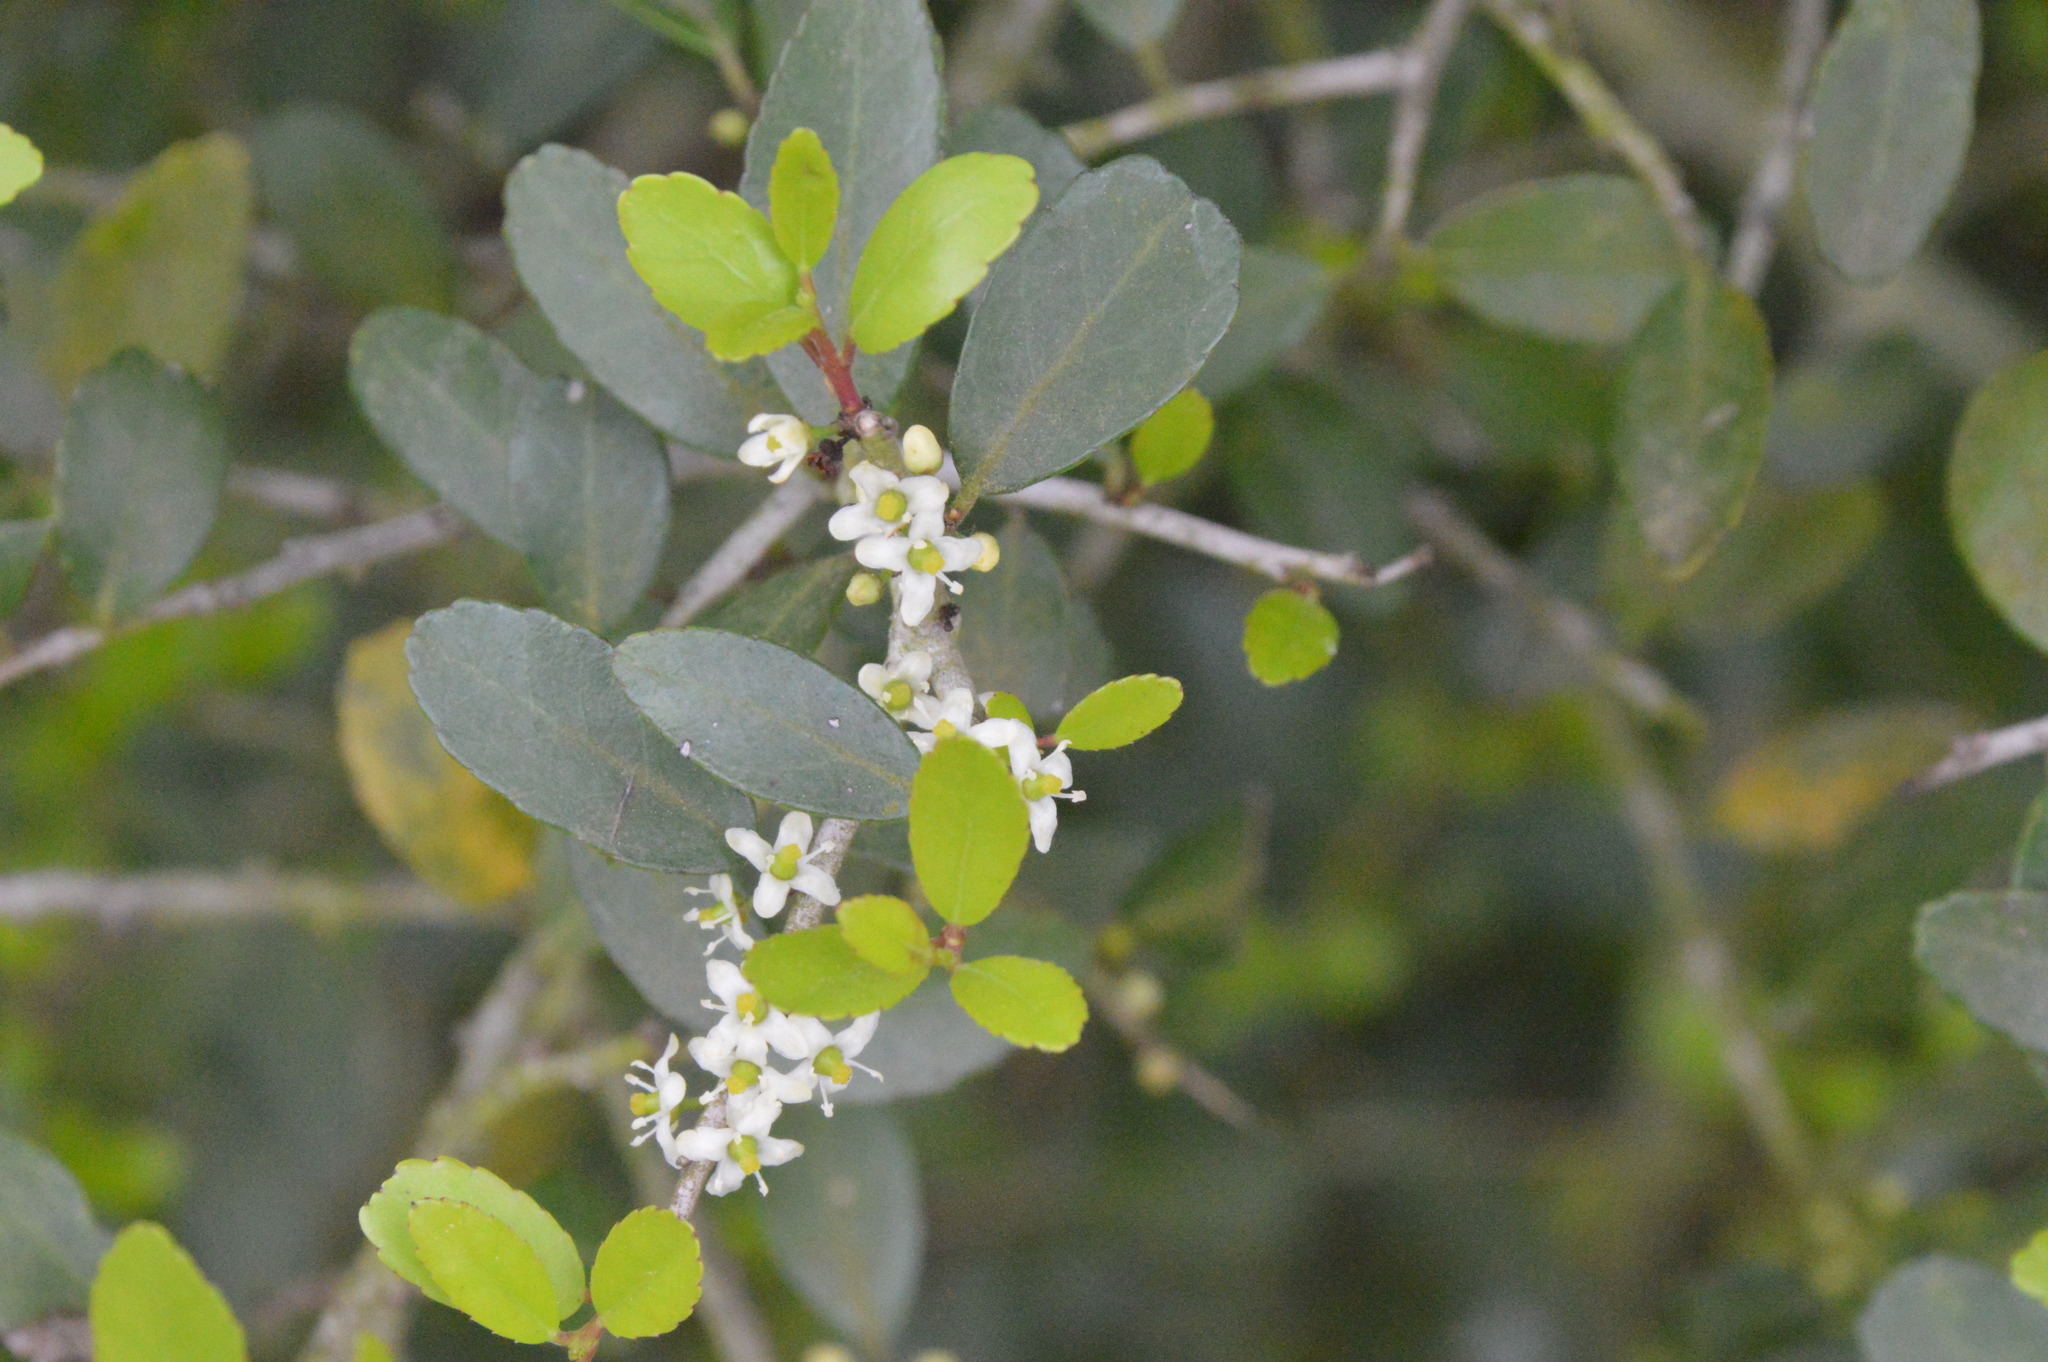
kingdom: Plantae
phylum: Tracheophyta
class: Magnoliopsida
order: Aquifoliales
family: Aquifoliaceae
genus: Ilex
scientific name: Ilex vomitoria
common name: Yaupon holly
